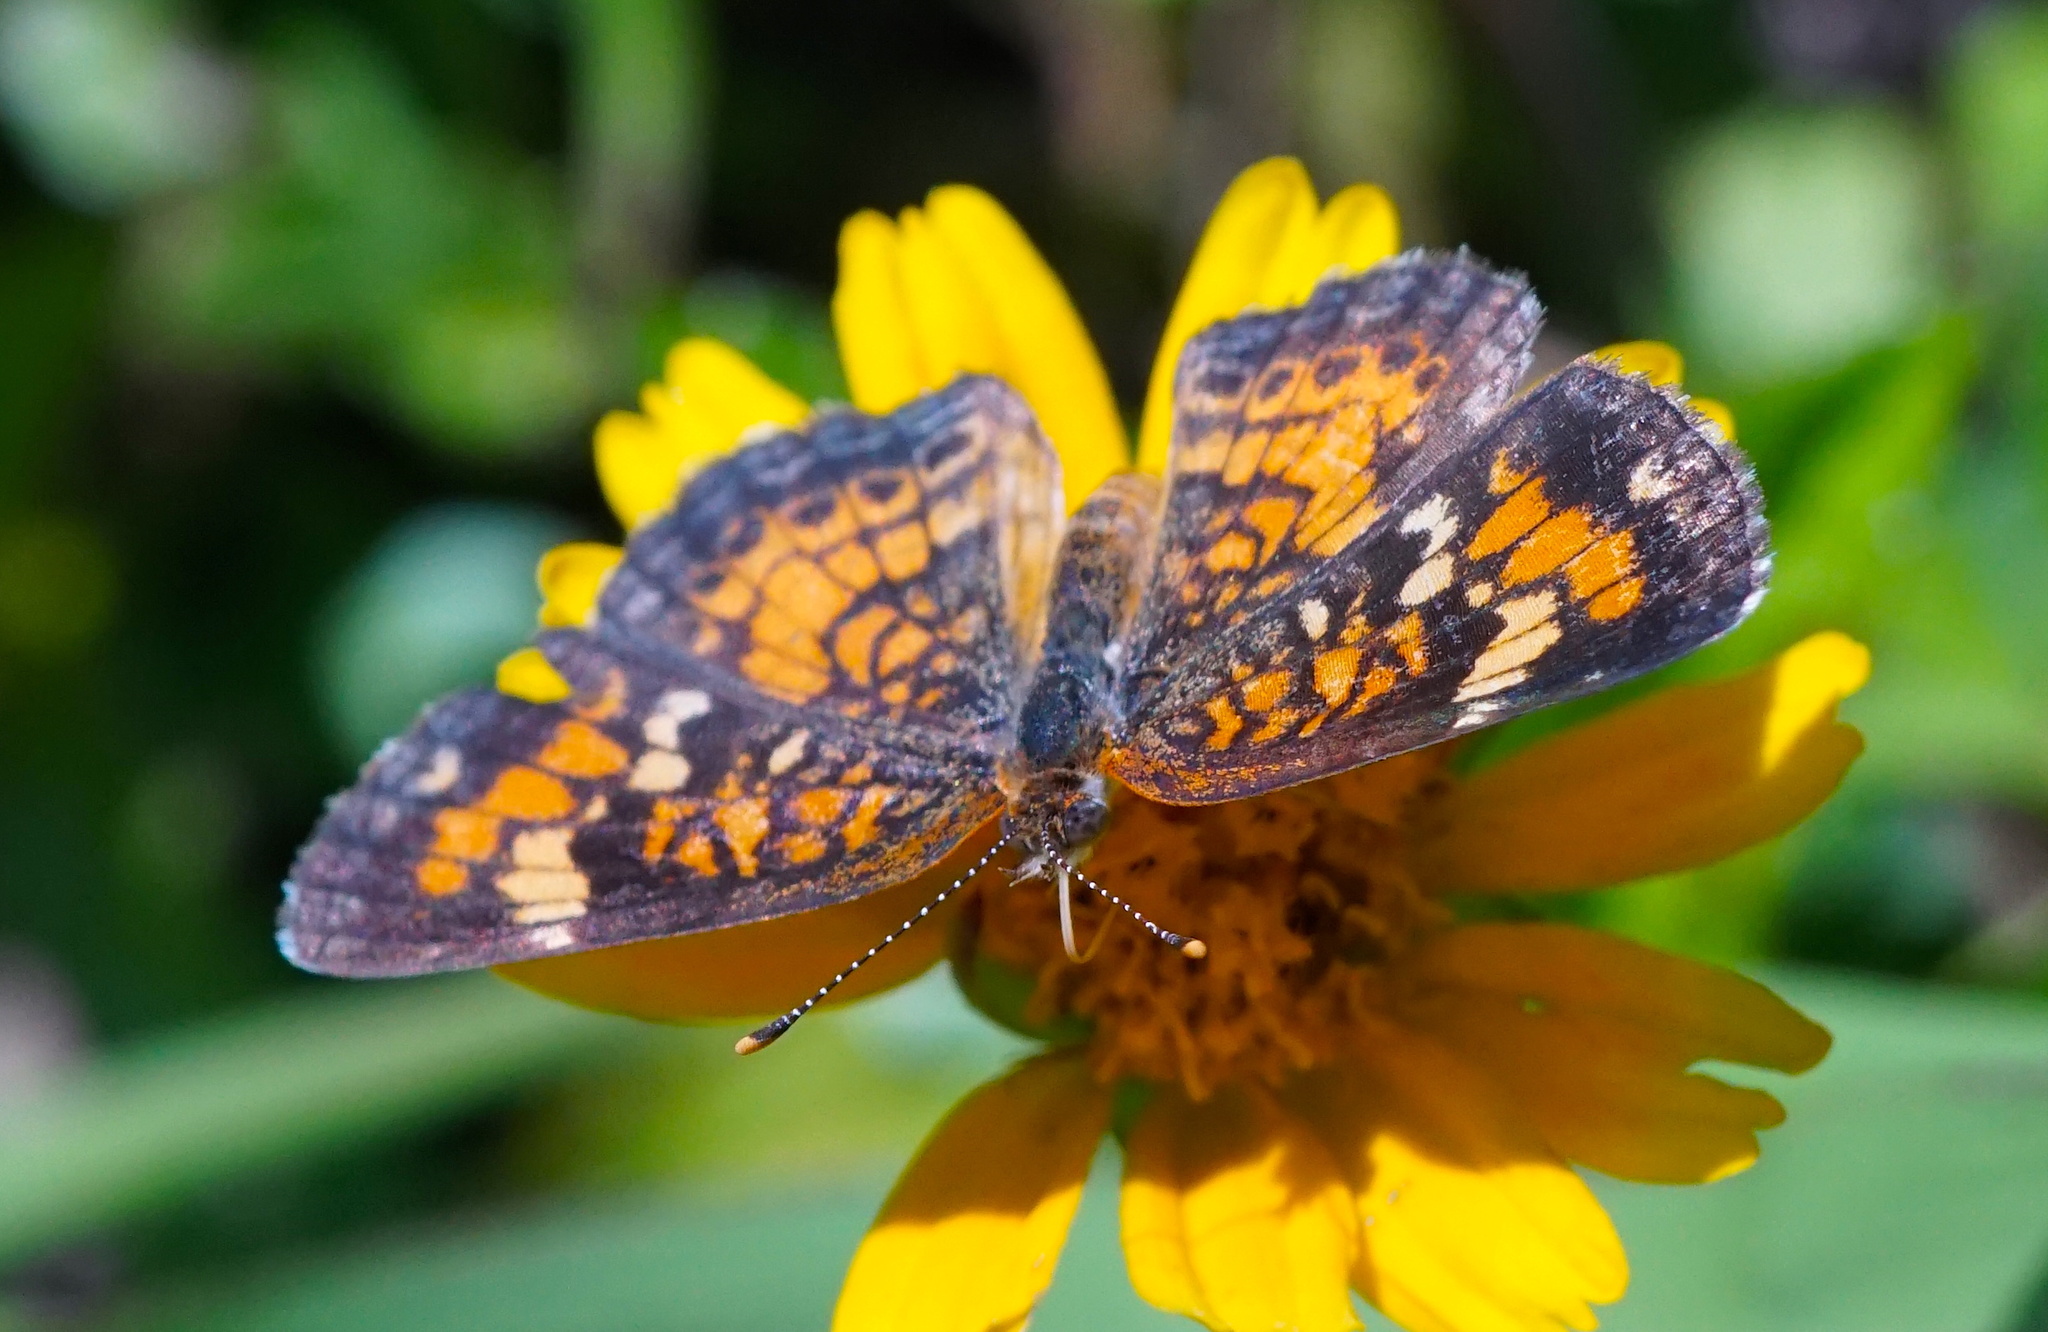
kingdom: Animalia
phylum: Arthropoda
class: Insecta
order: Lepidoptera
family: Nymphalidae
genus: Phyciodes
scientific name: Phyciodes phaon
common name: Phaon crescent
